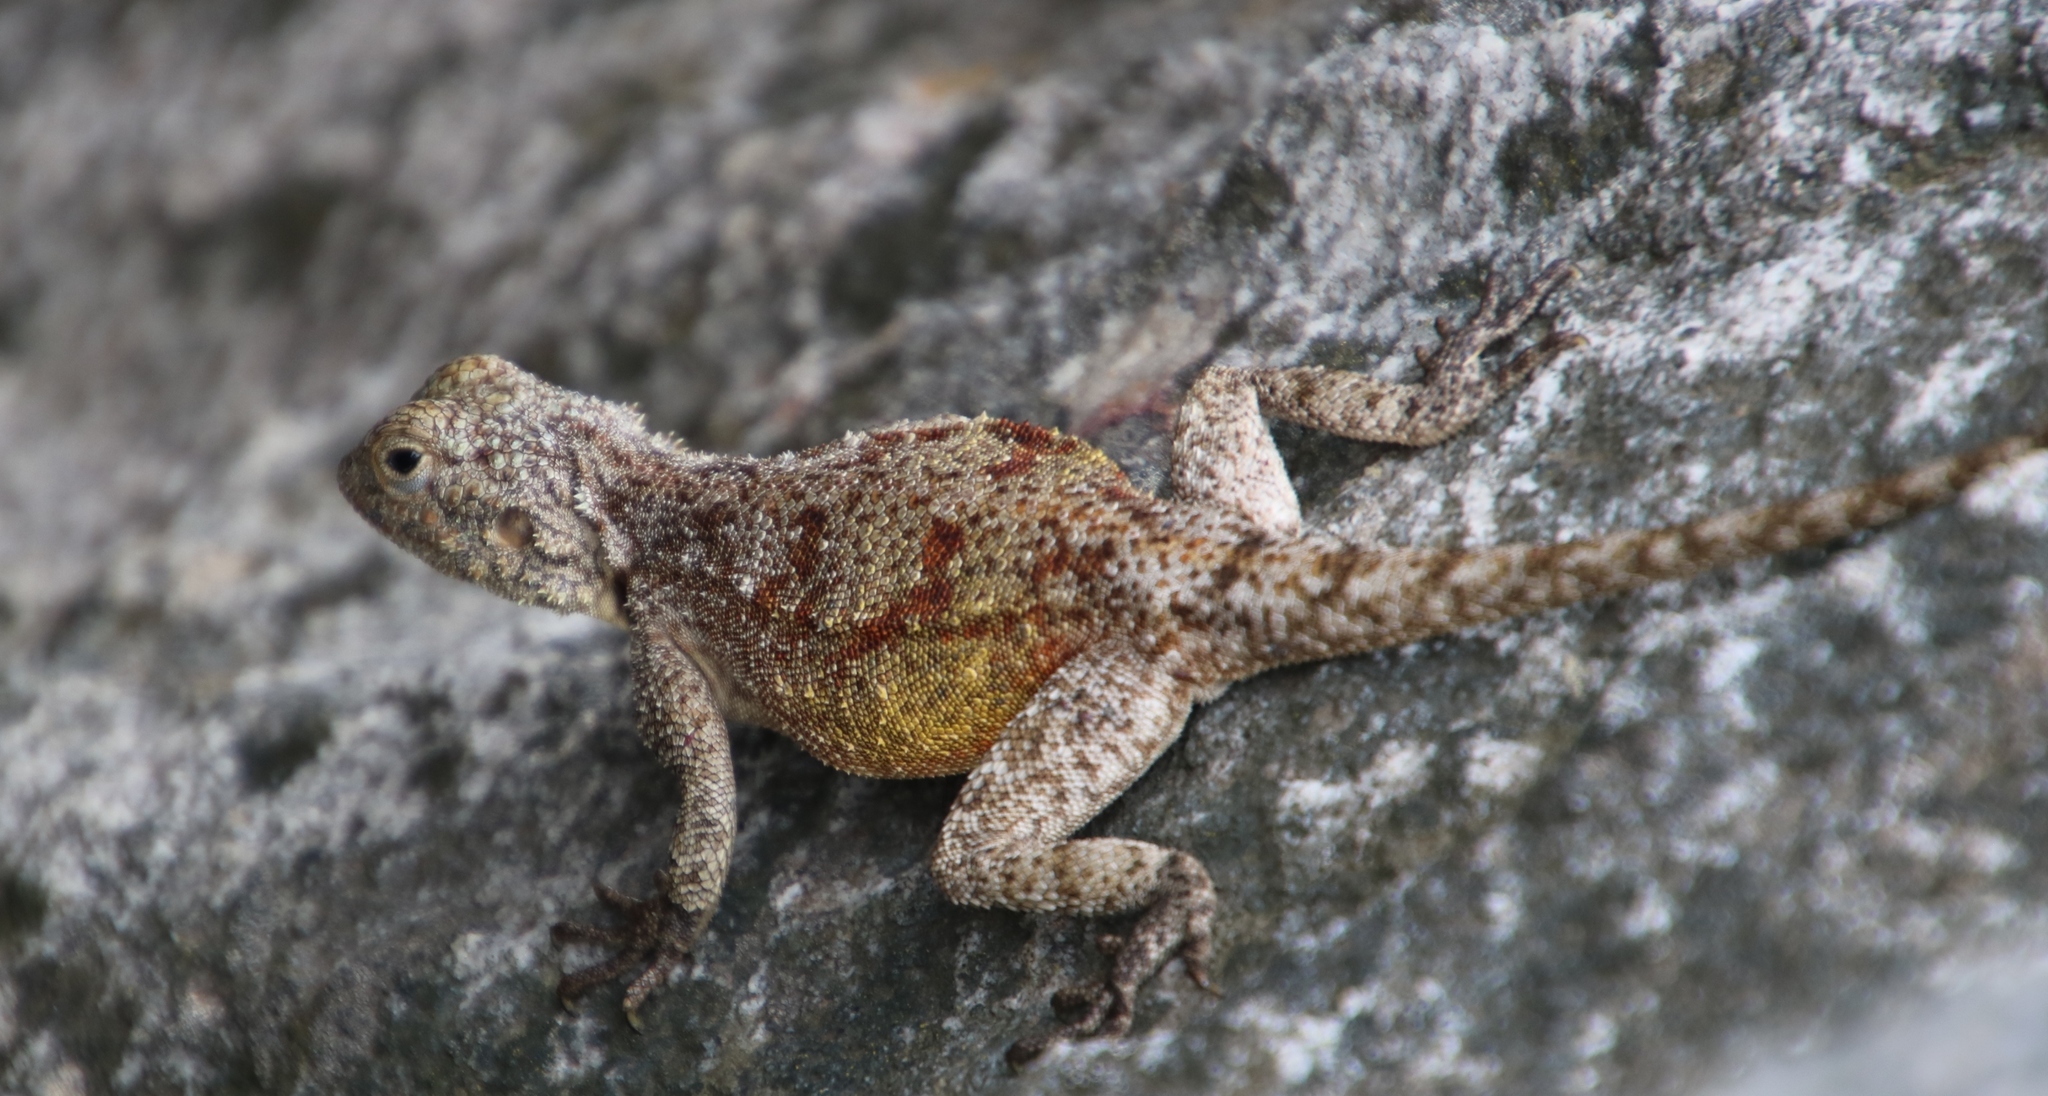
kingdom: Animalia
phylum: Chordata
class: Squamata
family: Agamidae
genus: Agama
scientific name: Agama atra
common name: Southern african rock agama
